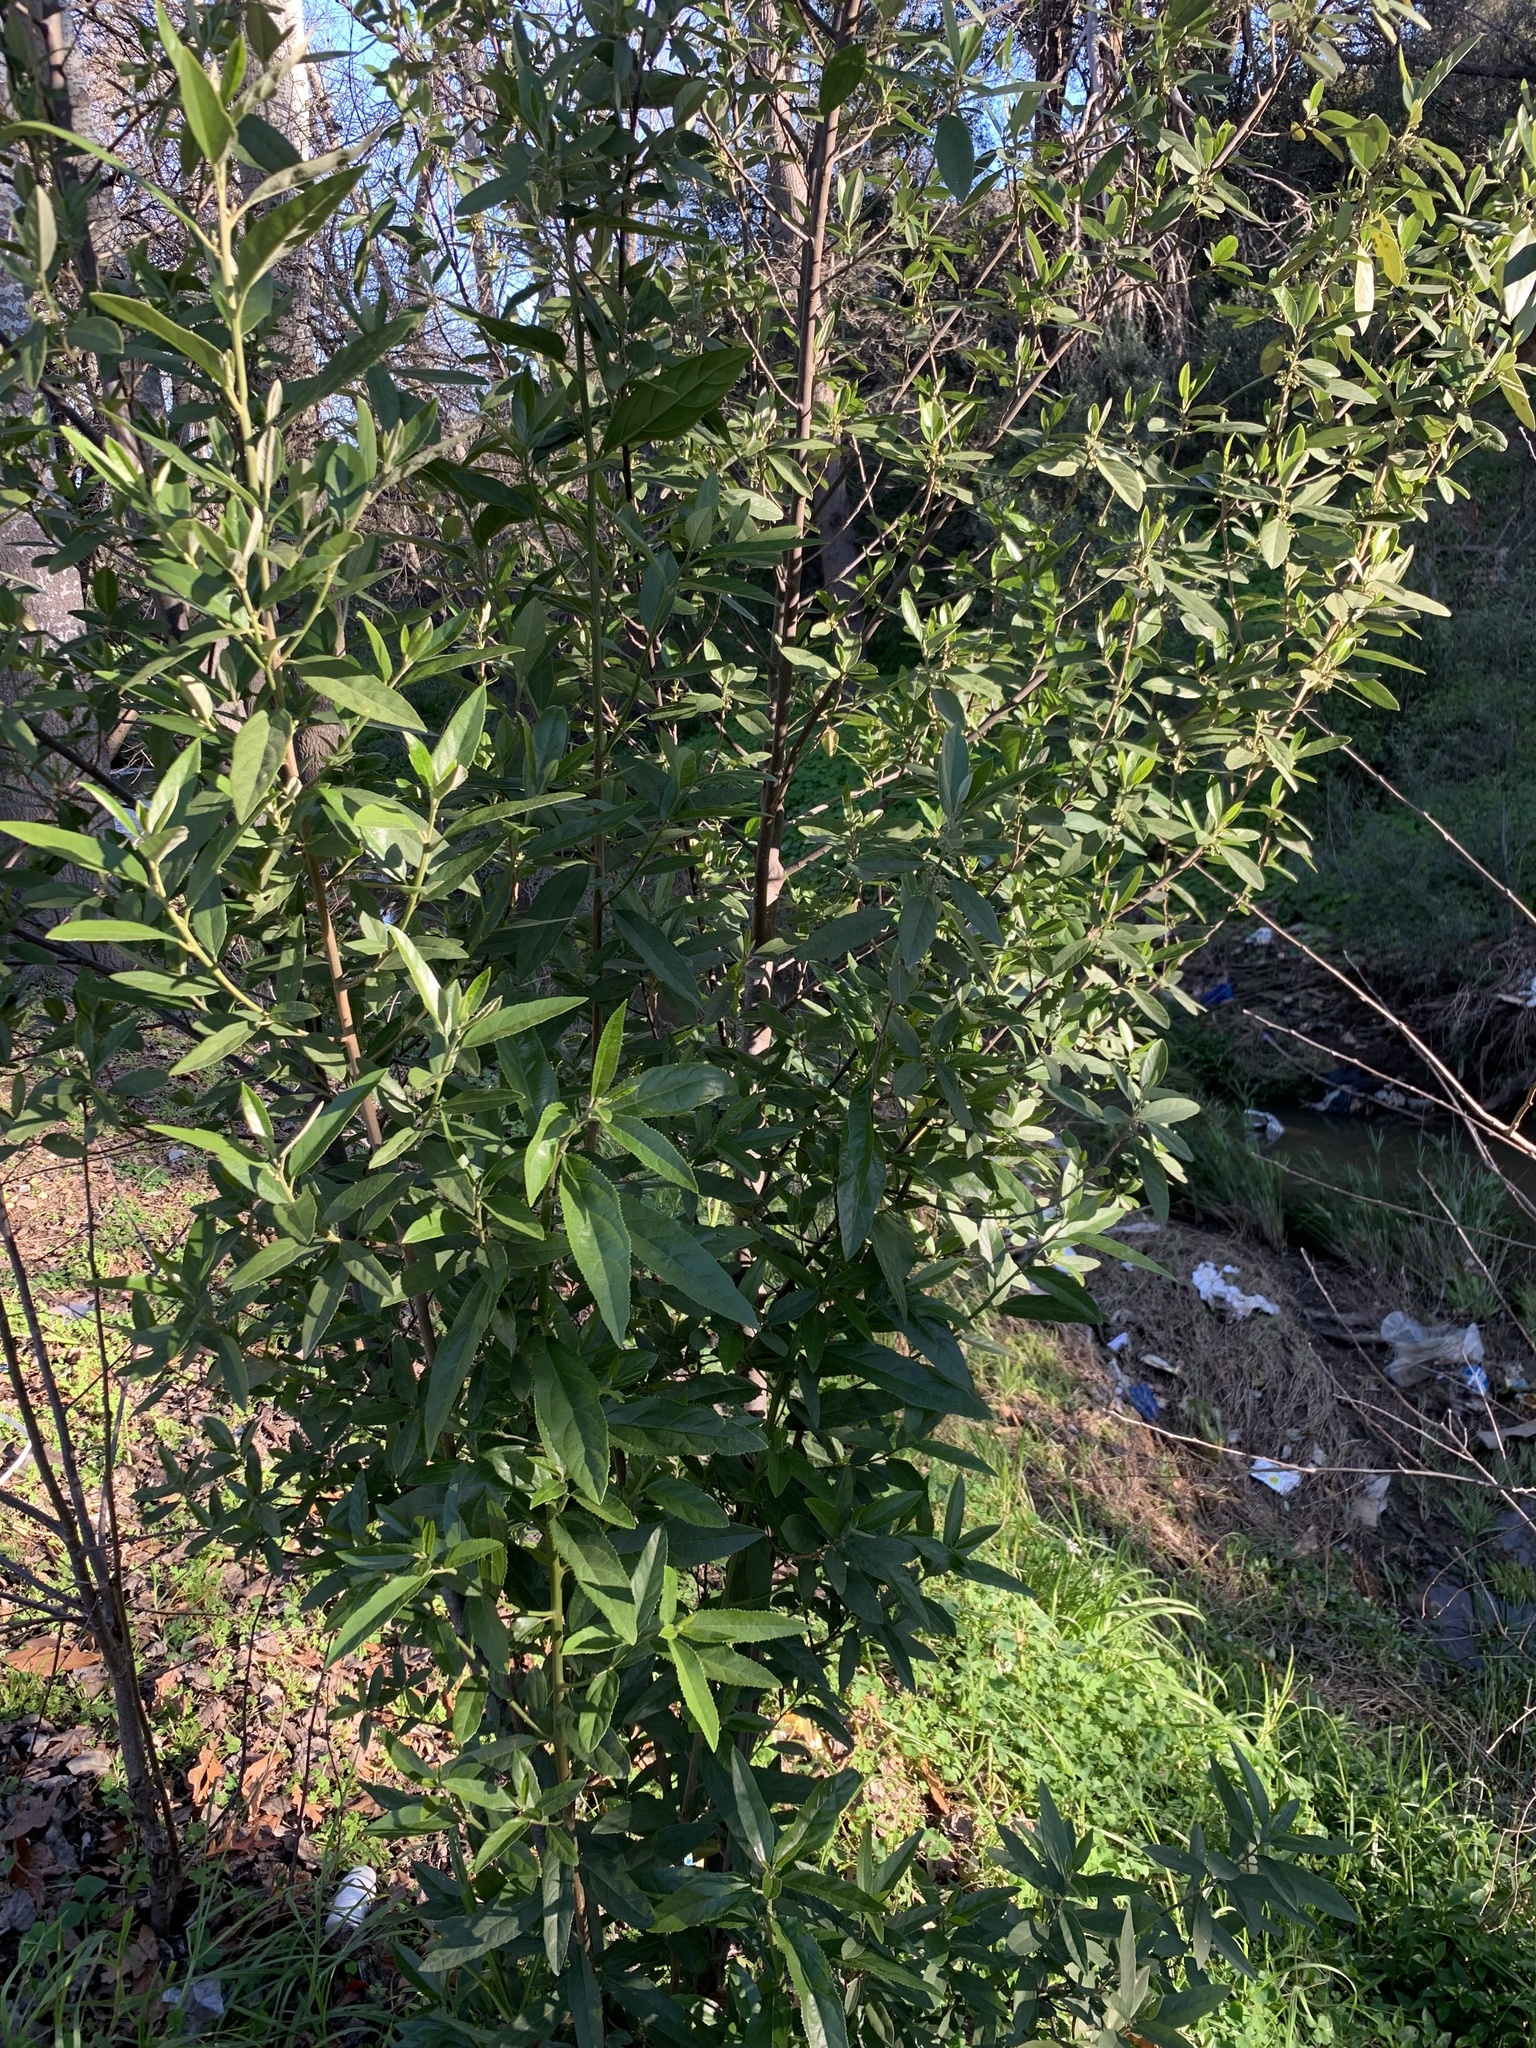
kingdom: Plantae
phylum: Tracheophyta
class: Magnoliopsida
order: Malpighiales
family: Achariaceae
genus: Kiggelaria
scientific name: Kiggelaria africana
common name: Wild peach
